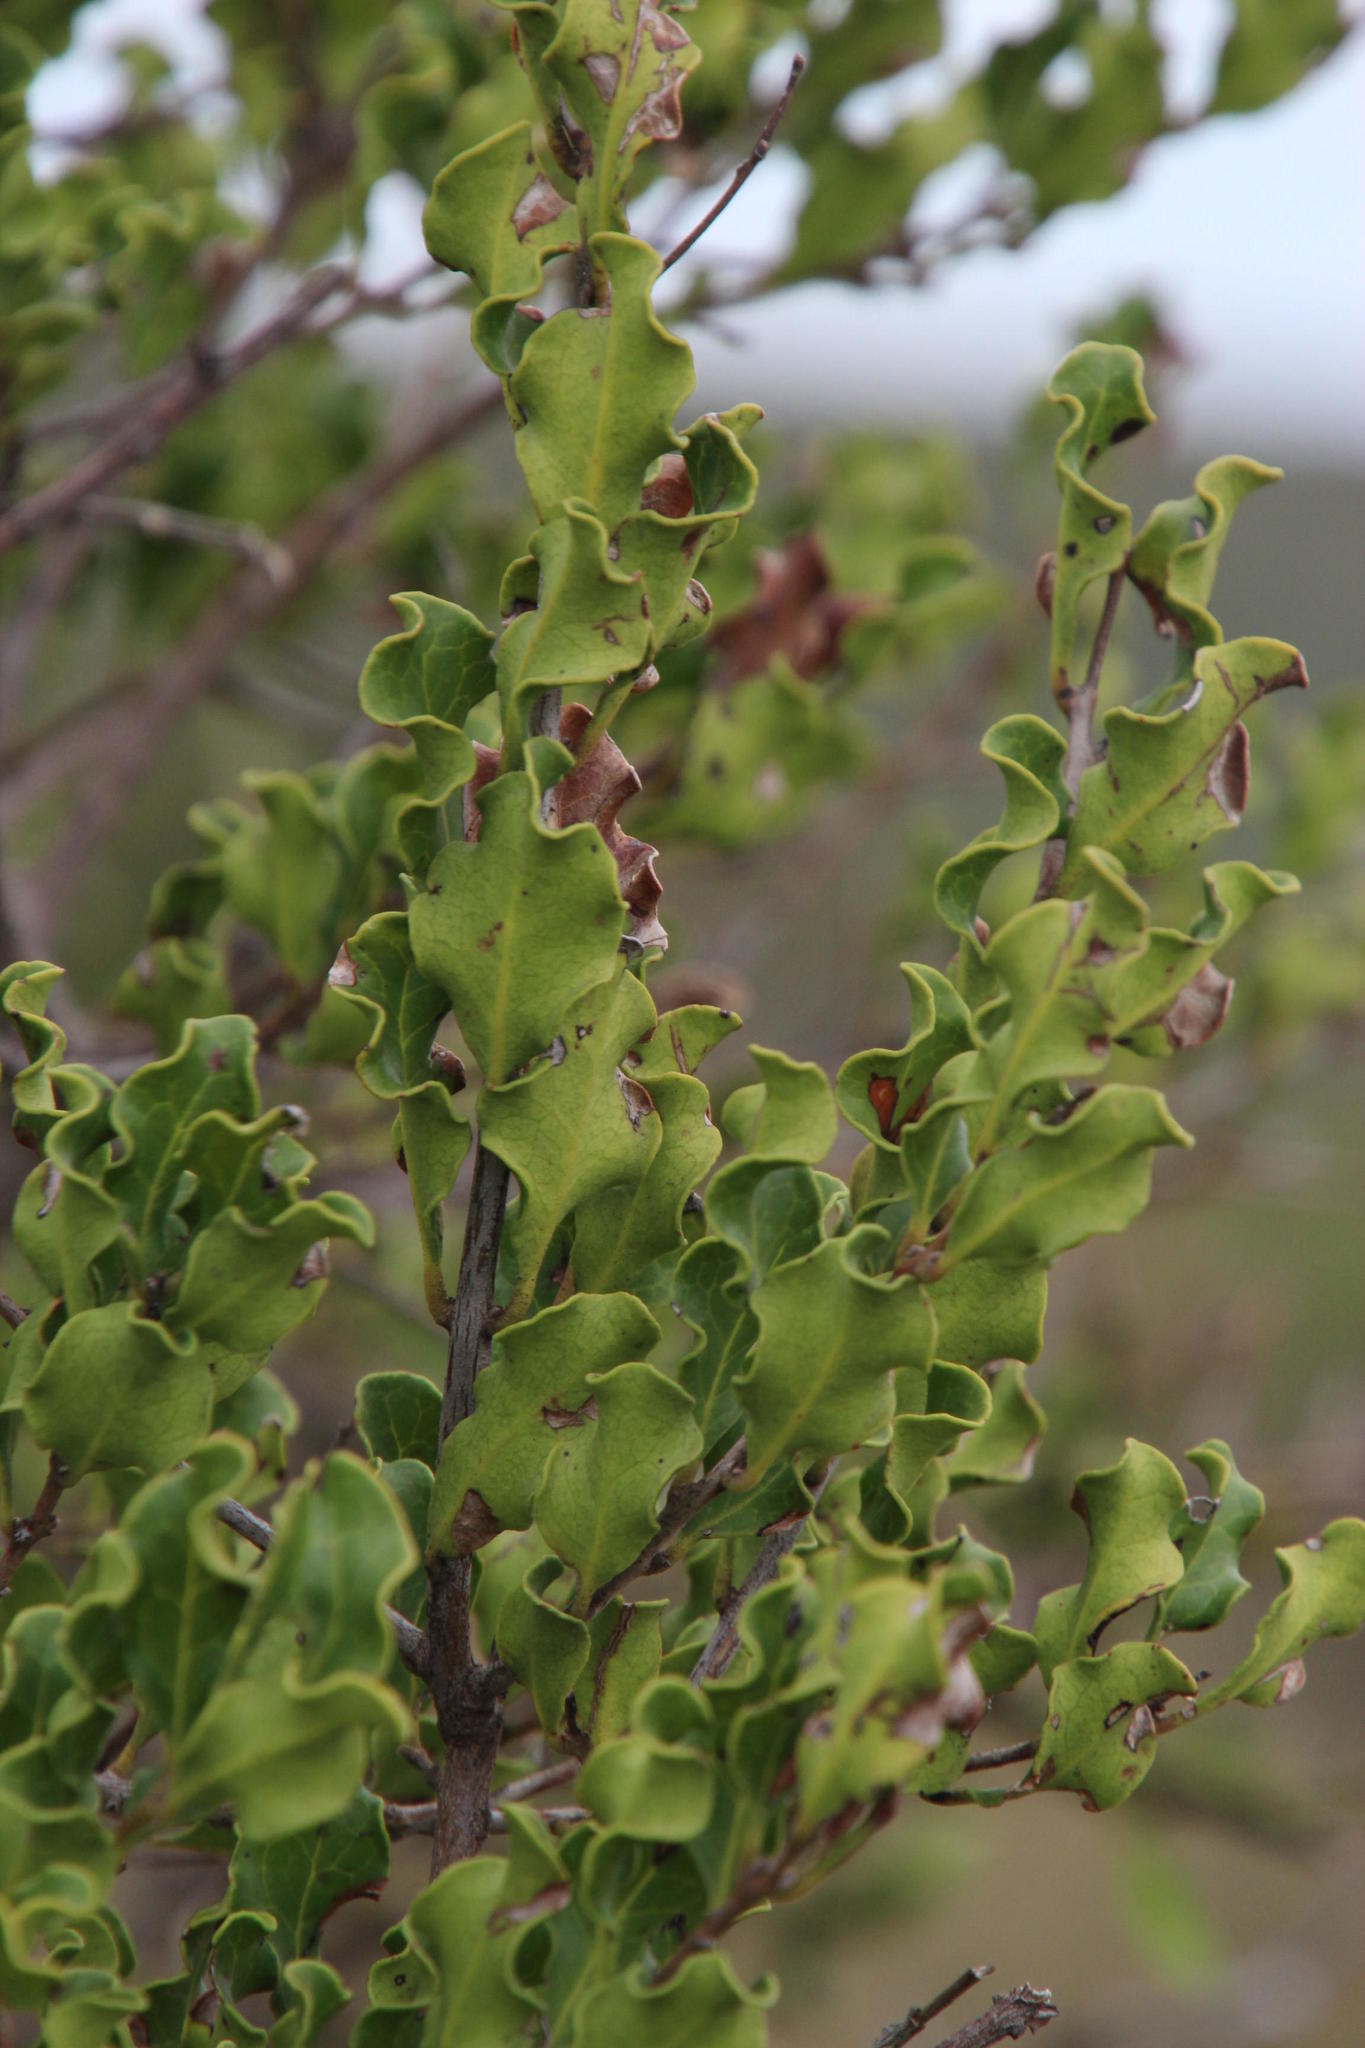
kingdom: Plantae
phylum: Tracheophyta
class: Magnoliopsida
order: Ericales
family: Ebenaceae
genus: Euclea
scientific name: Euclea undulata
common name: Small-leaved guarri
